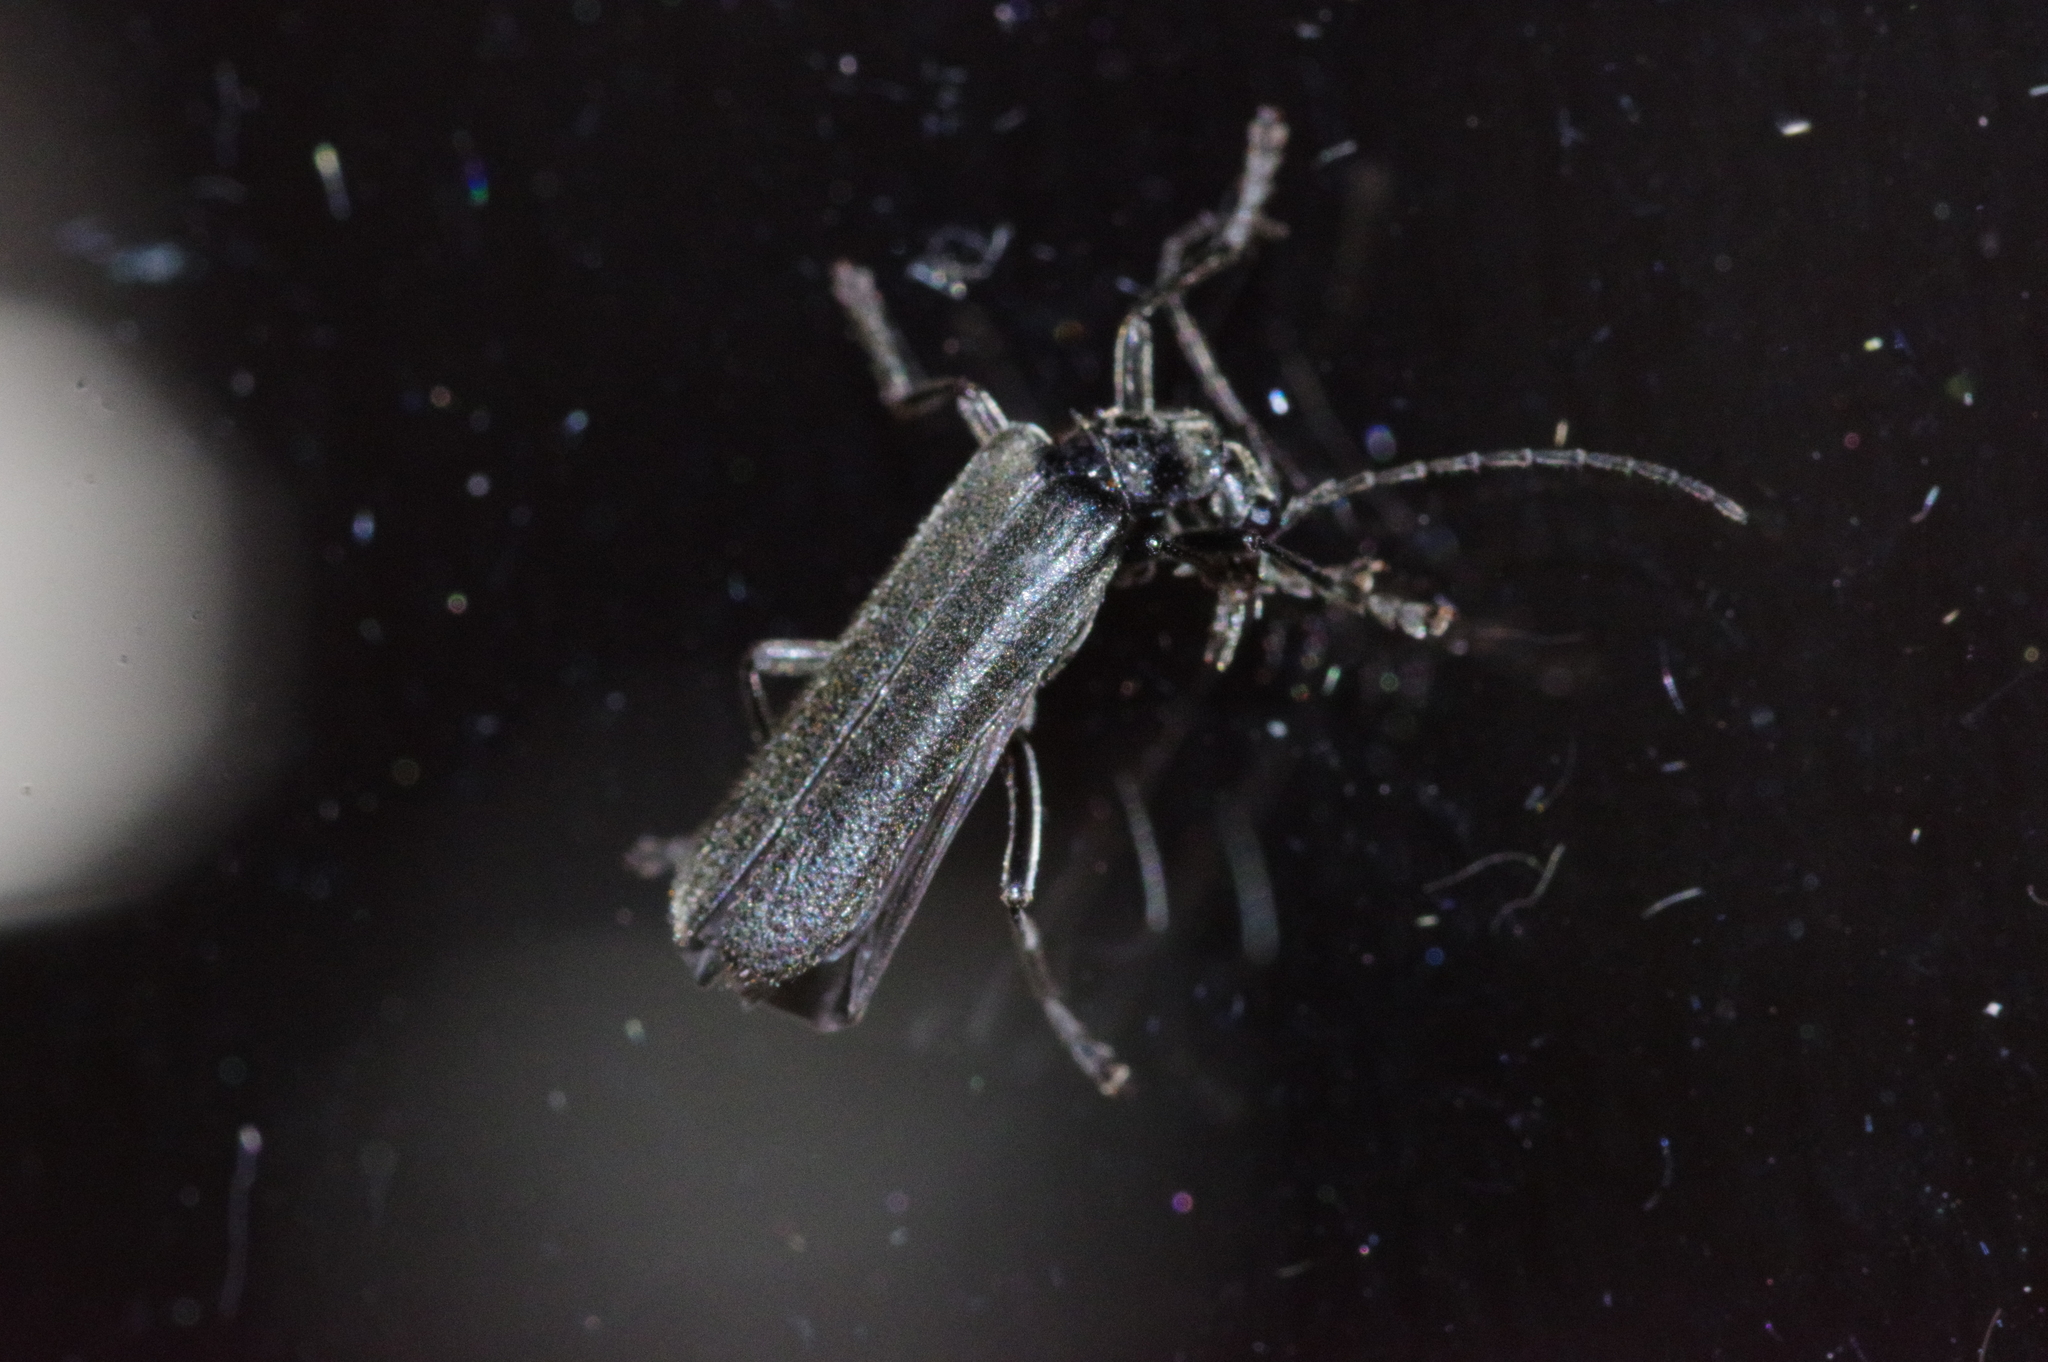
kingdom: Animalia
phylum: Arthropoda
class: Insecta
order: Coleoptera
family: Cantharidae
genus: Lycocerus
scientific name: Lycocerus
